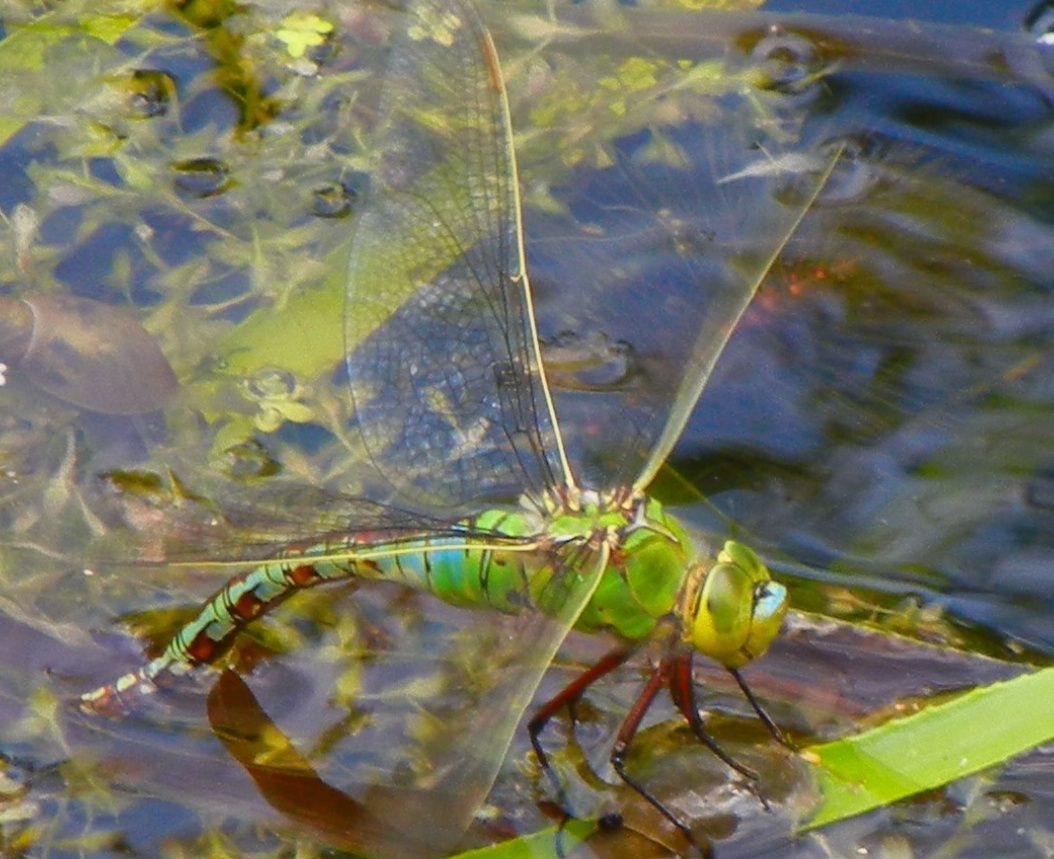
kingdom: Animalia
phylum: Arthropoda
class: Insecta
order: Odonata
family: Aeshnidae
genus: Anax
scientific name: Anax imperator
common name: Emperor dragonfly
